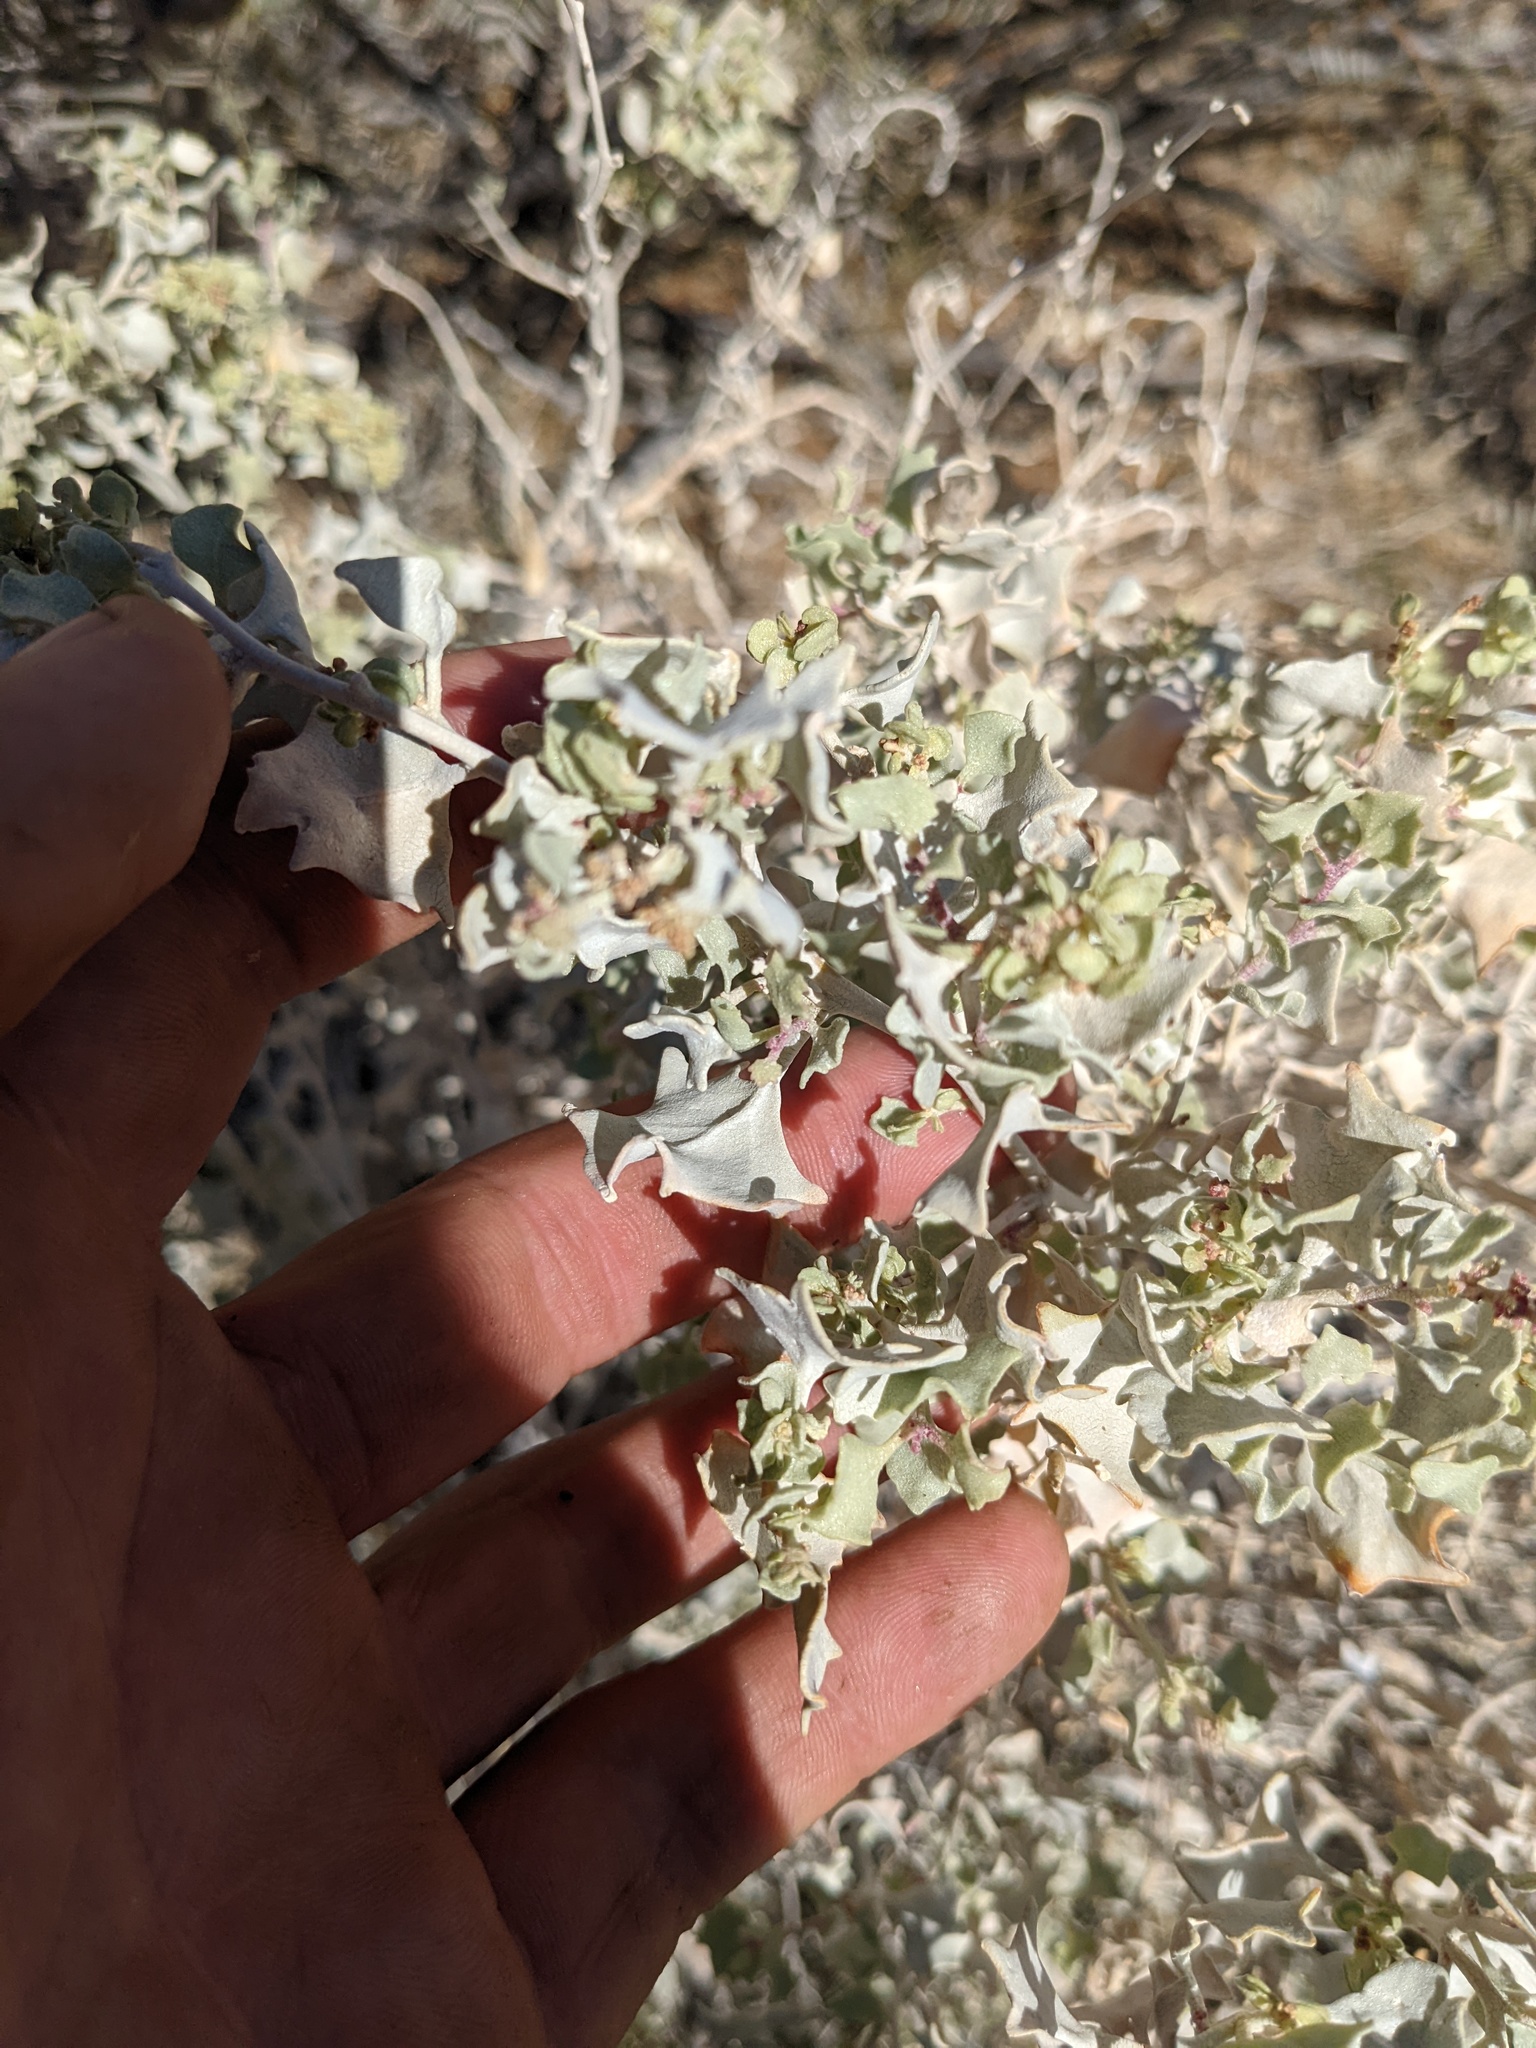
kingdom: Plantae
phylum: Tracheophyta
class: Magnoliopsida
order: Caryophyllales
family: Amaranthaceae
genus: Atriplex
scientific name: Atriplex hymenelytra
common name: Desert-holly
